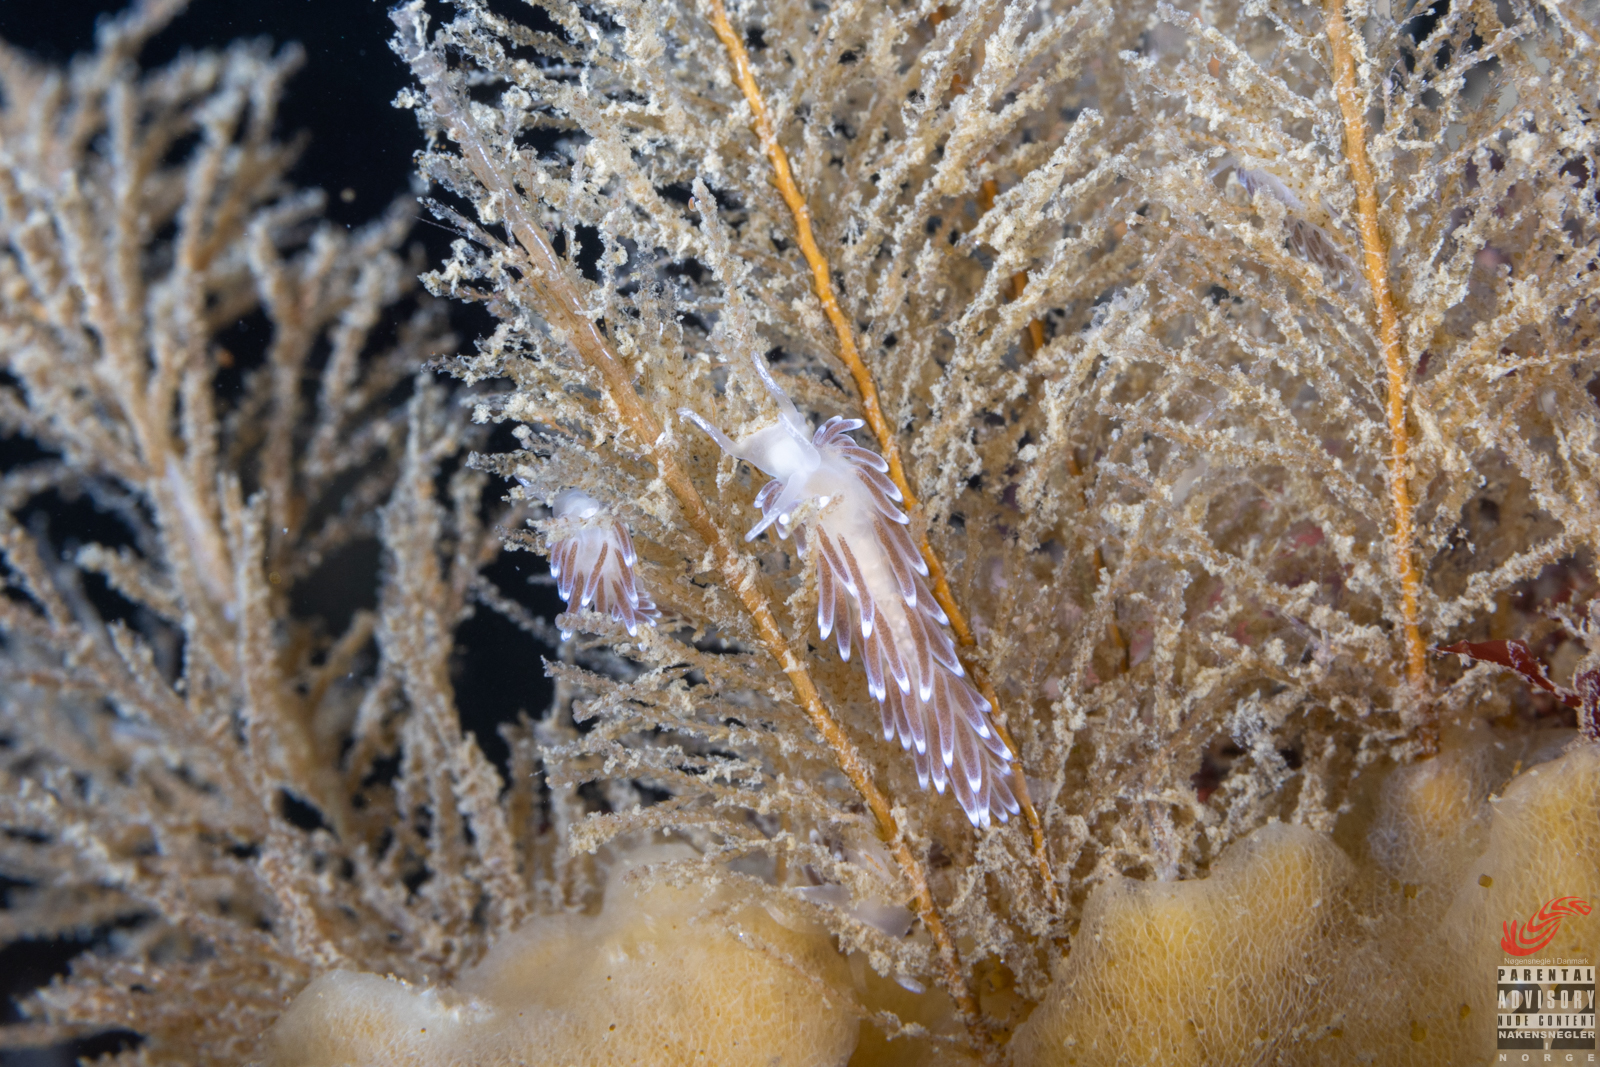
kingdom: Animalia
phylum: Mollusca
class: Gastropoda
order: Nudibranchia
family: Cuthonellidae
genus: Cuthonella
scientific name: Cuthonella concinna
